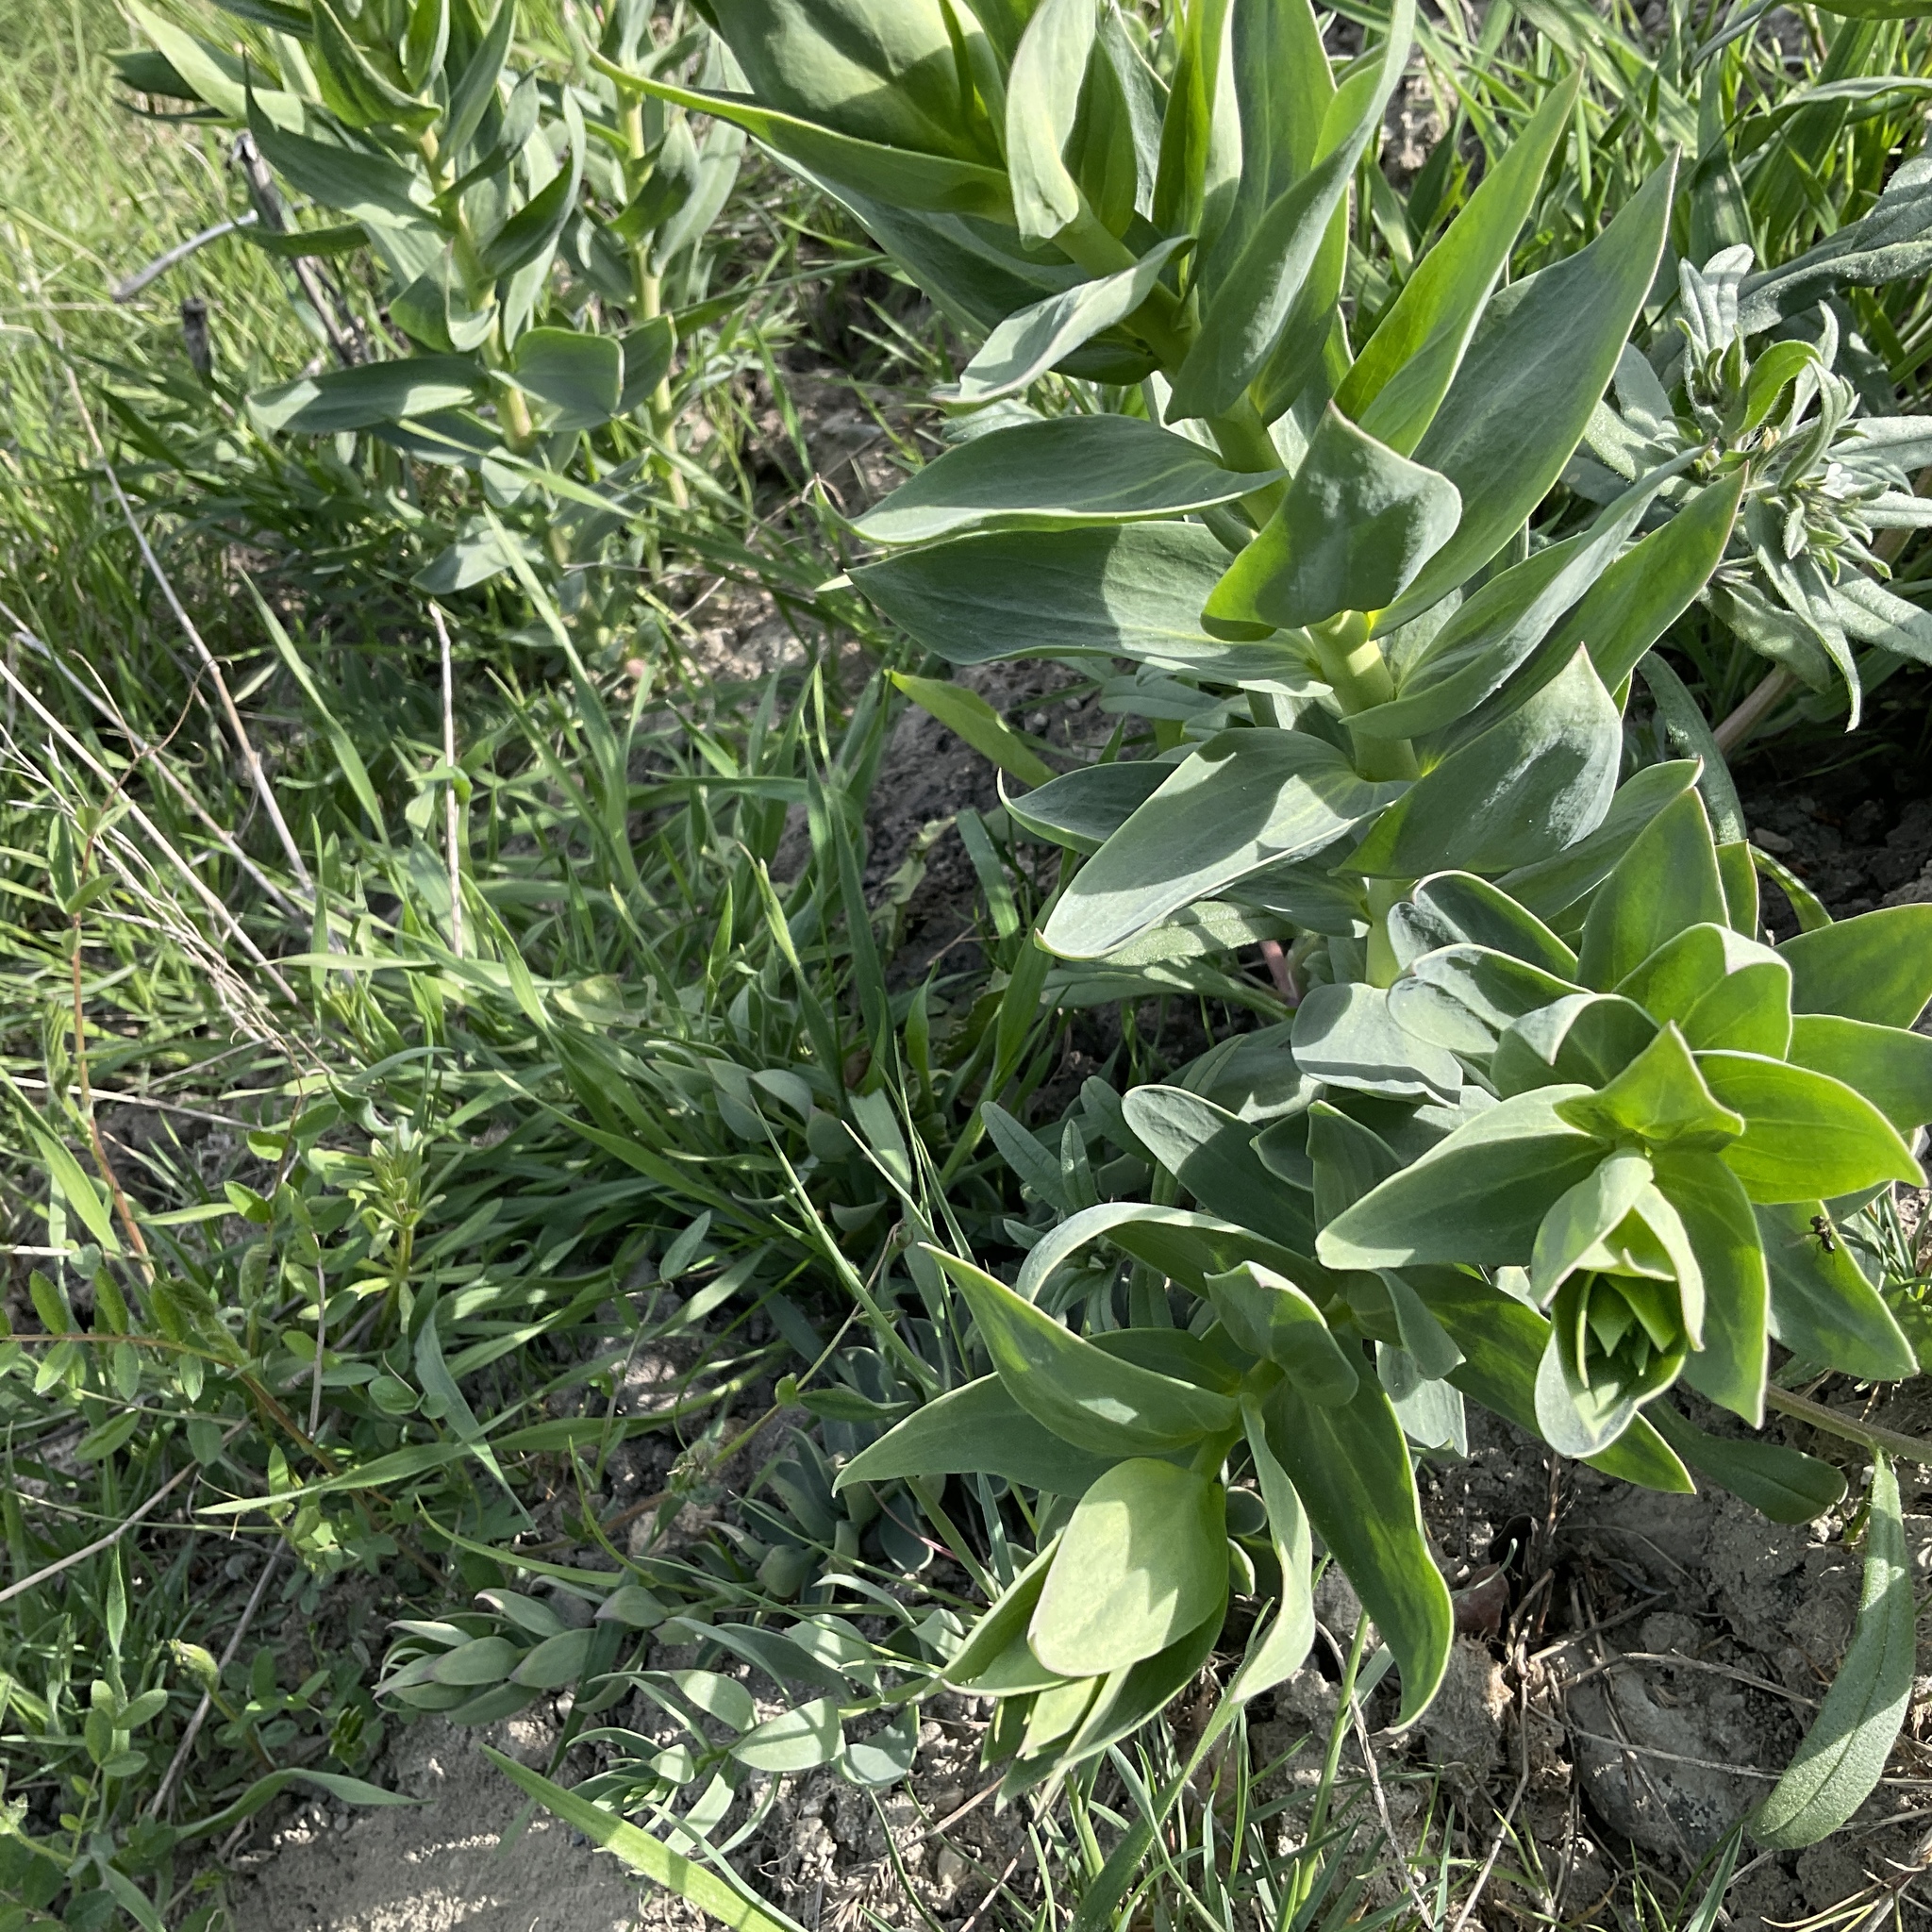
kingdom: Plantae
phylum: Tracheophyta
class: Magnoliopsida
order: Lamiales
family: Plantaginaceae
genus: Linaria
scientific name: Linaria dalmatica
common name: Dalmatian toadflax
